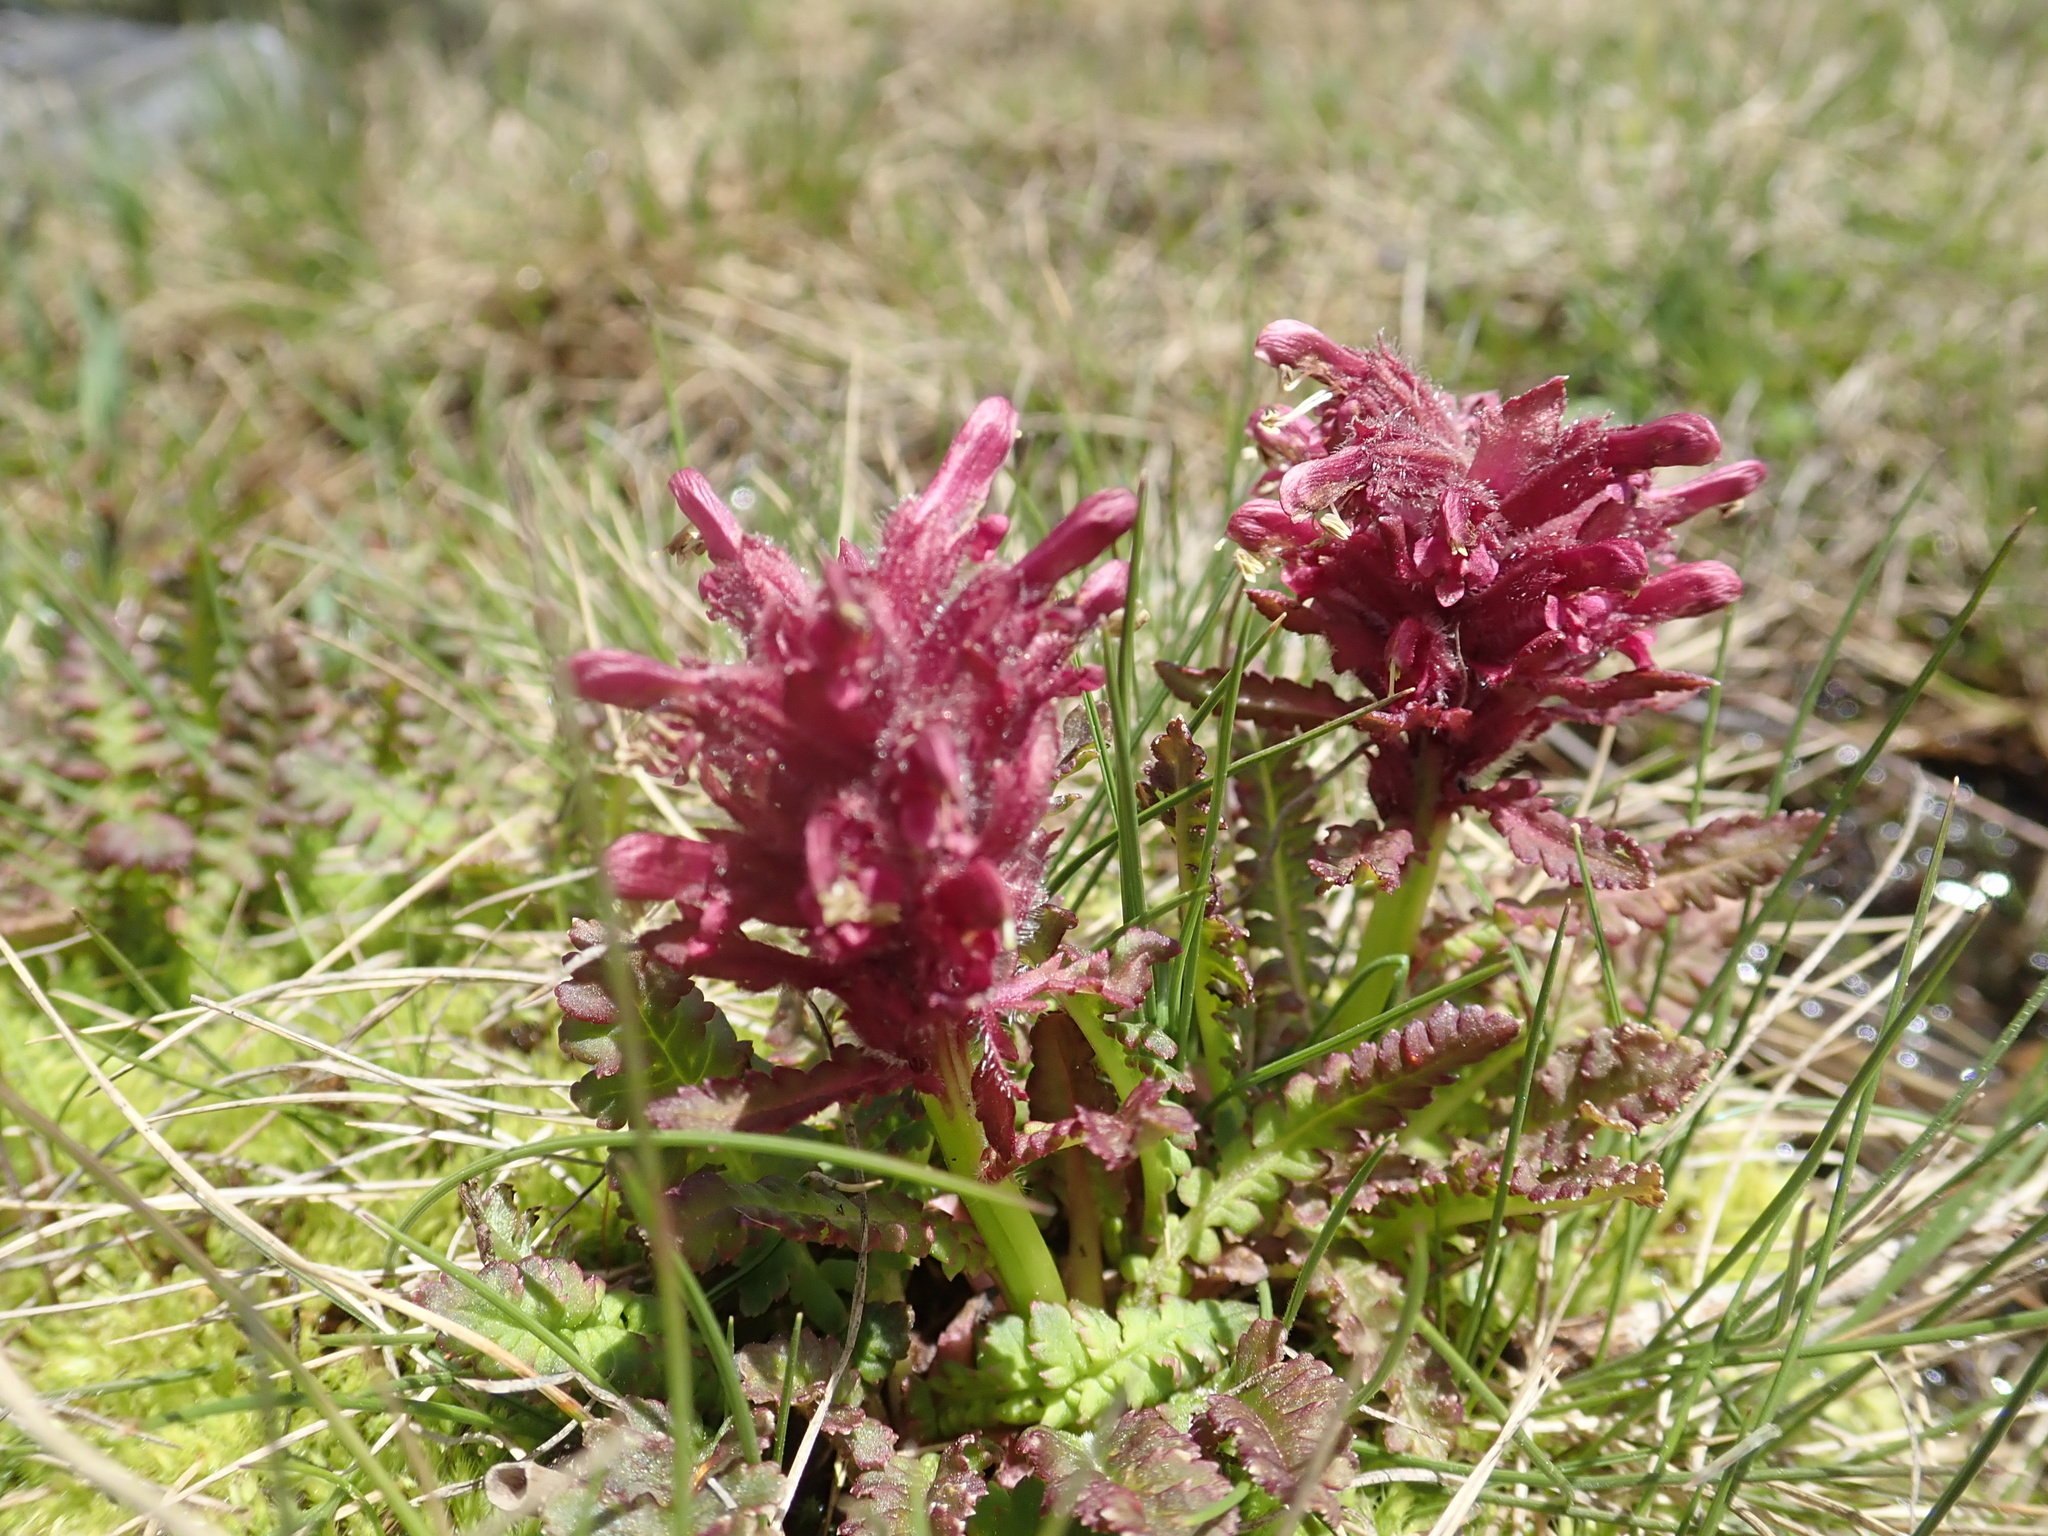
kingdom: Plantae
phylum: Tracheophyta
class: Magnoliopsida
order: Lamiales
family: Orobanchaceae
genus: Pedicularis
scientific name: Pedicularis olympica
